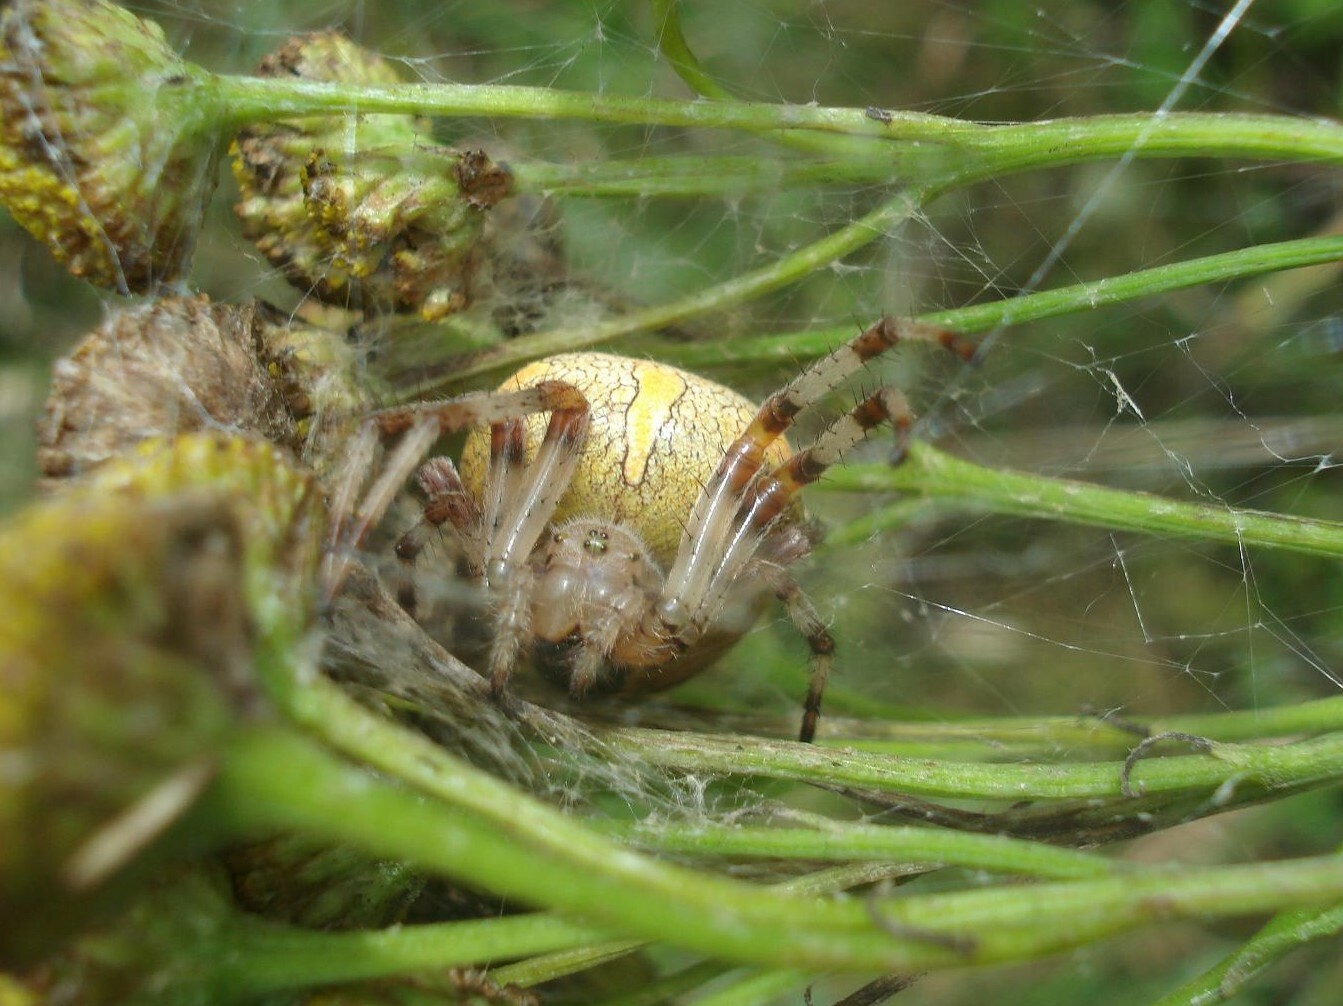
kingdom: Animalia
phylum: Arthropoda
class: Arachnida
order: Araneae
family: Araneidae
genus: Araneus
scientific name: Araneus marmoreus
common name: Marbled orbweaver
